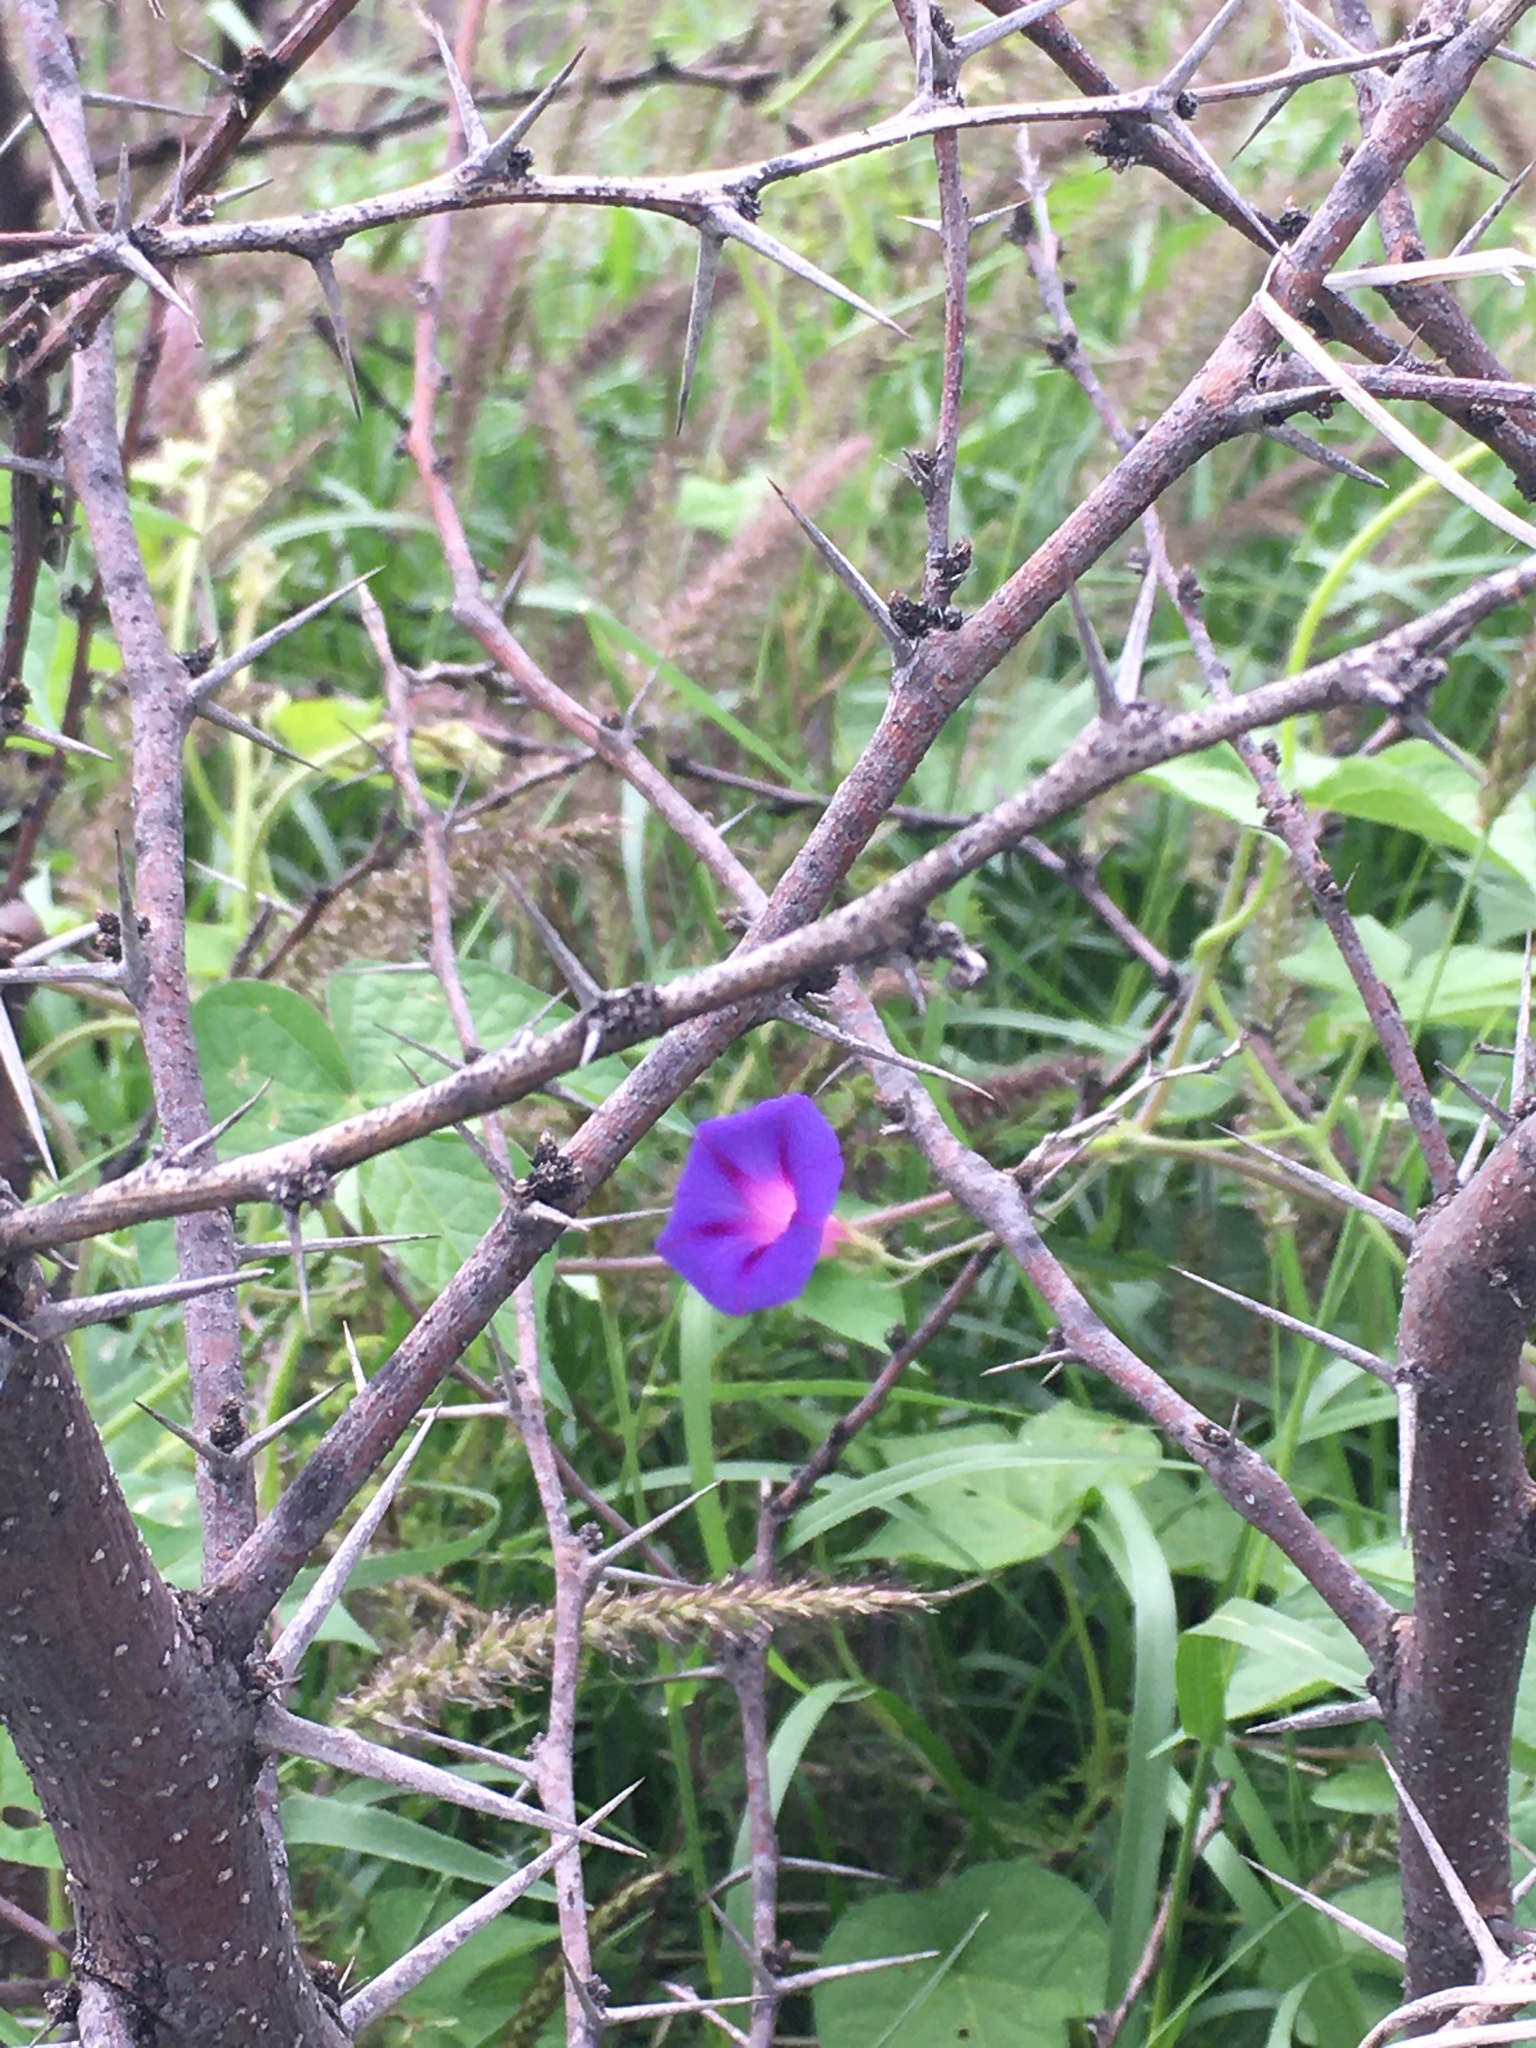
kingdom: Plantae
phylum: Tracheophyta
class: Magnoliopsida
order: Solanales
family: Convolvulaceae
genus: Ipomoea
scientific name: Ipomoea purpurea
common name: Common morning-glory
